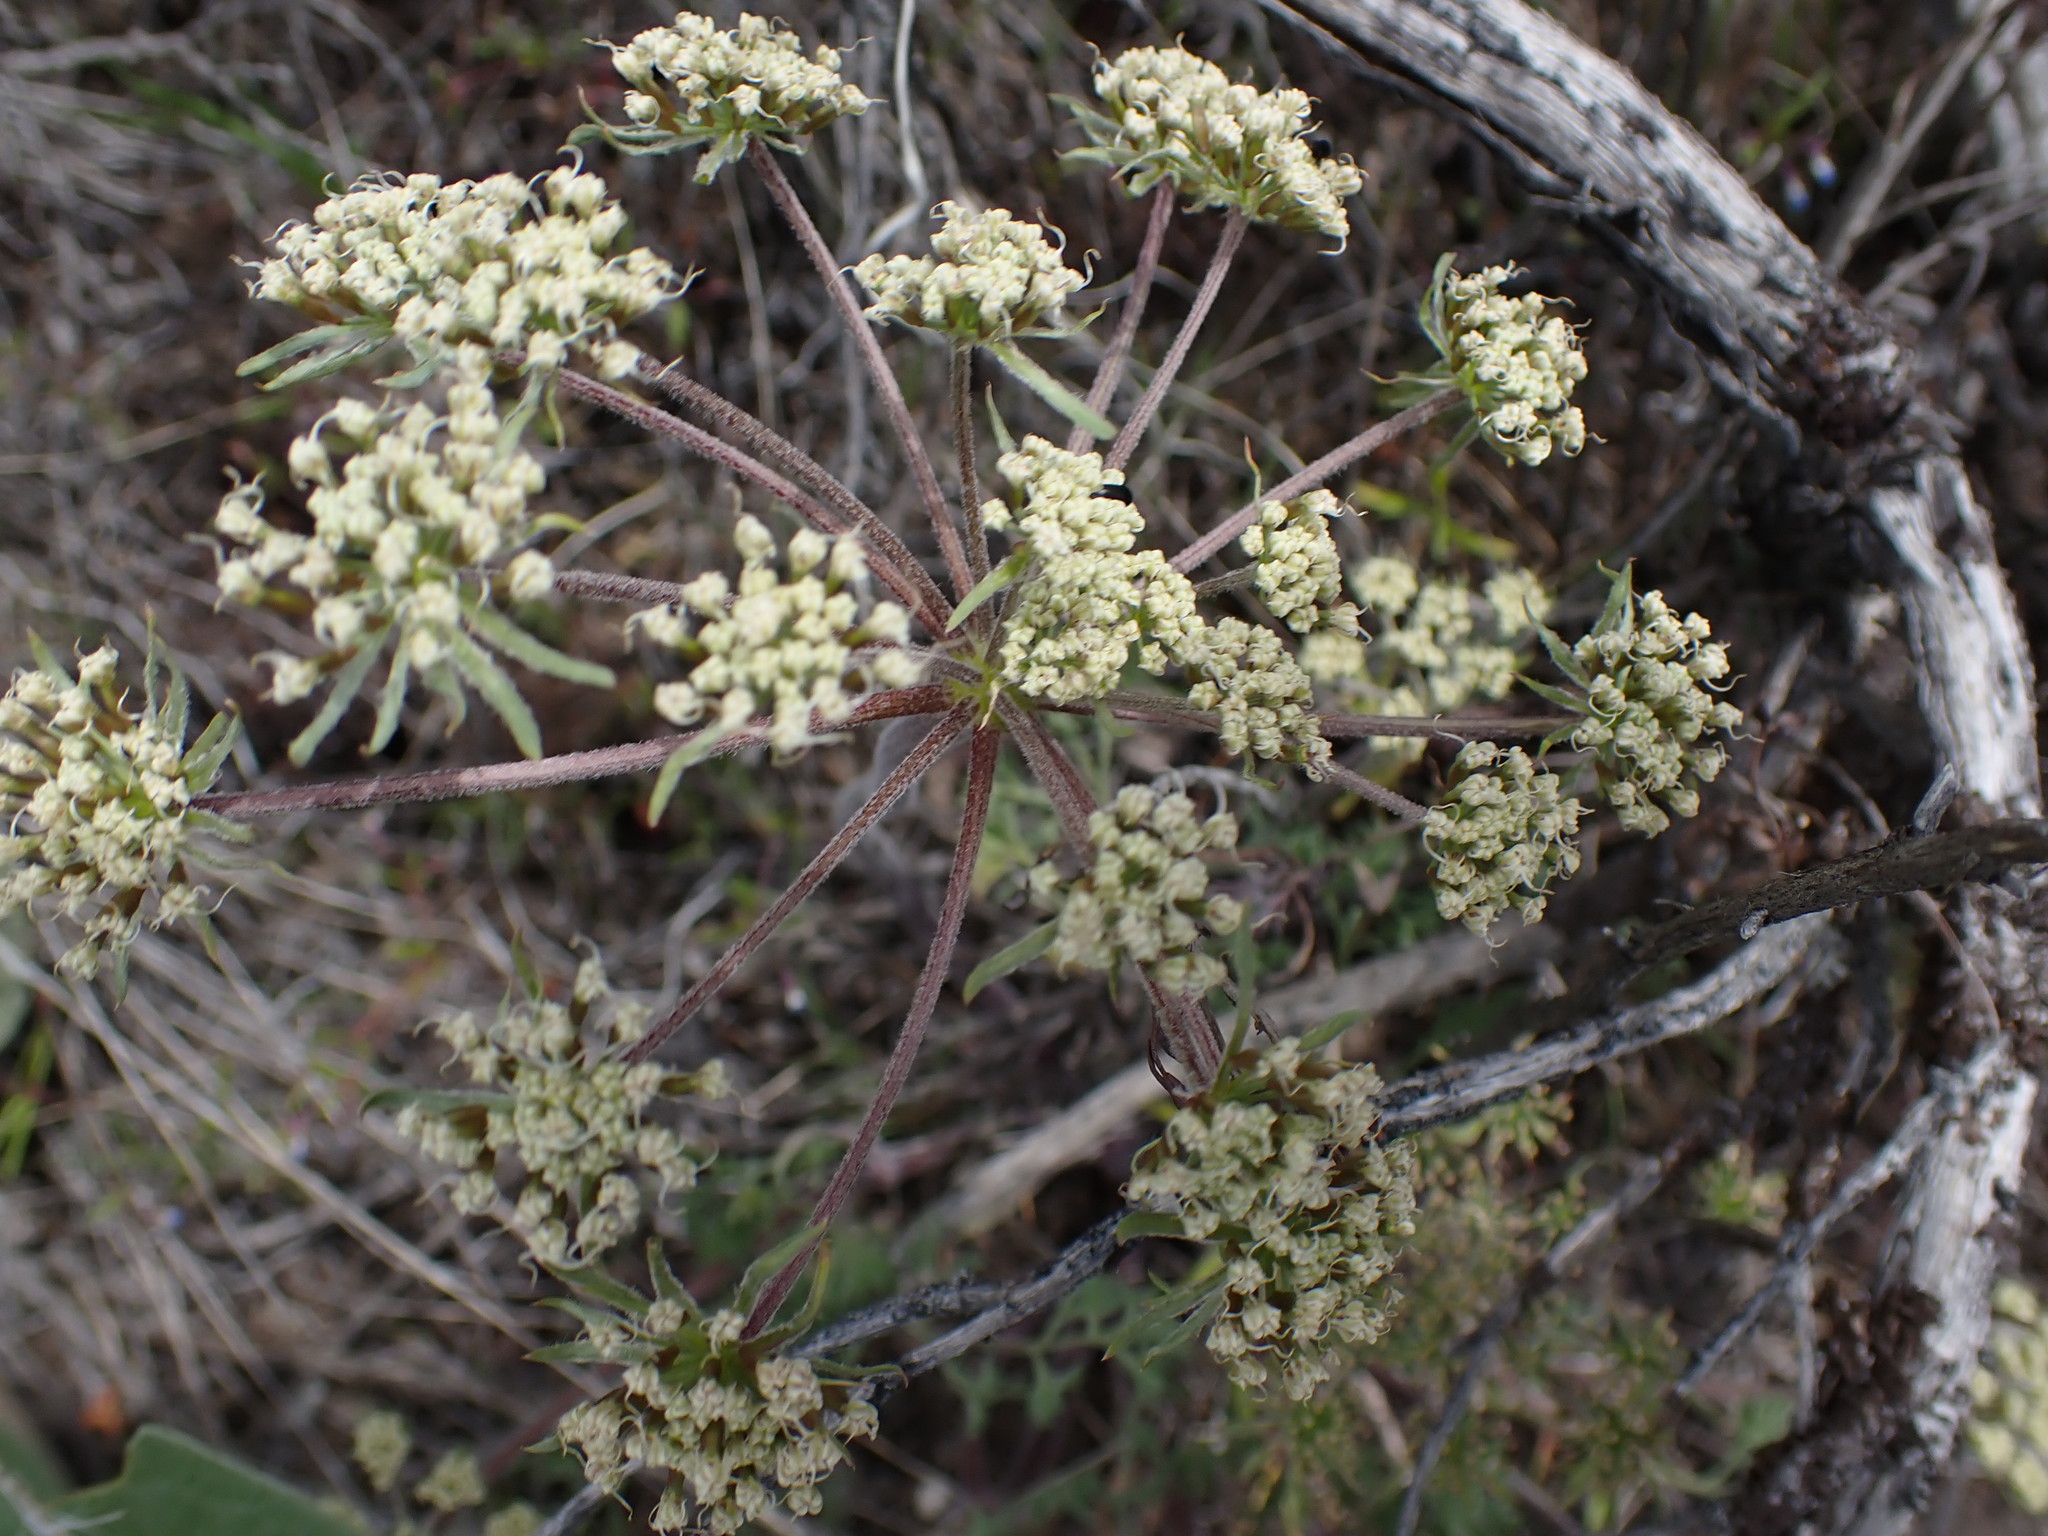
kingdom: Plantae
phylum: Tracheophyta
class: Magnoliopsida
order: Apiales
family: Apiaceae
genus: Lomatium
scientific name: Lomatium macrocarpum
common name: Big-seed biscuitroot
